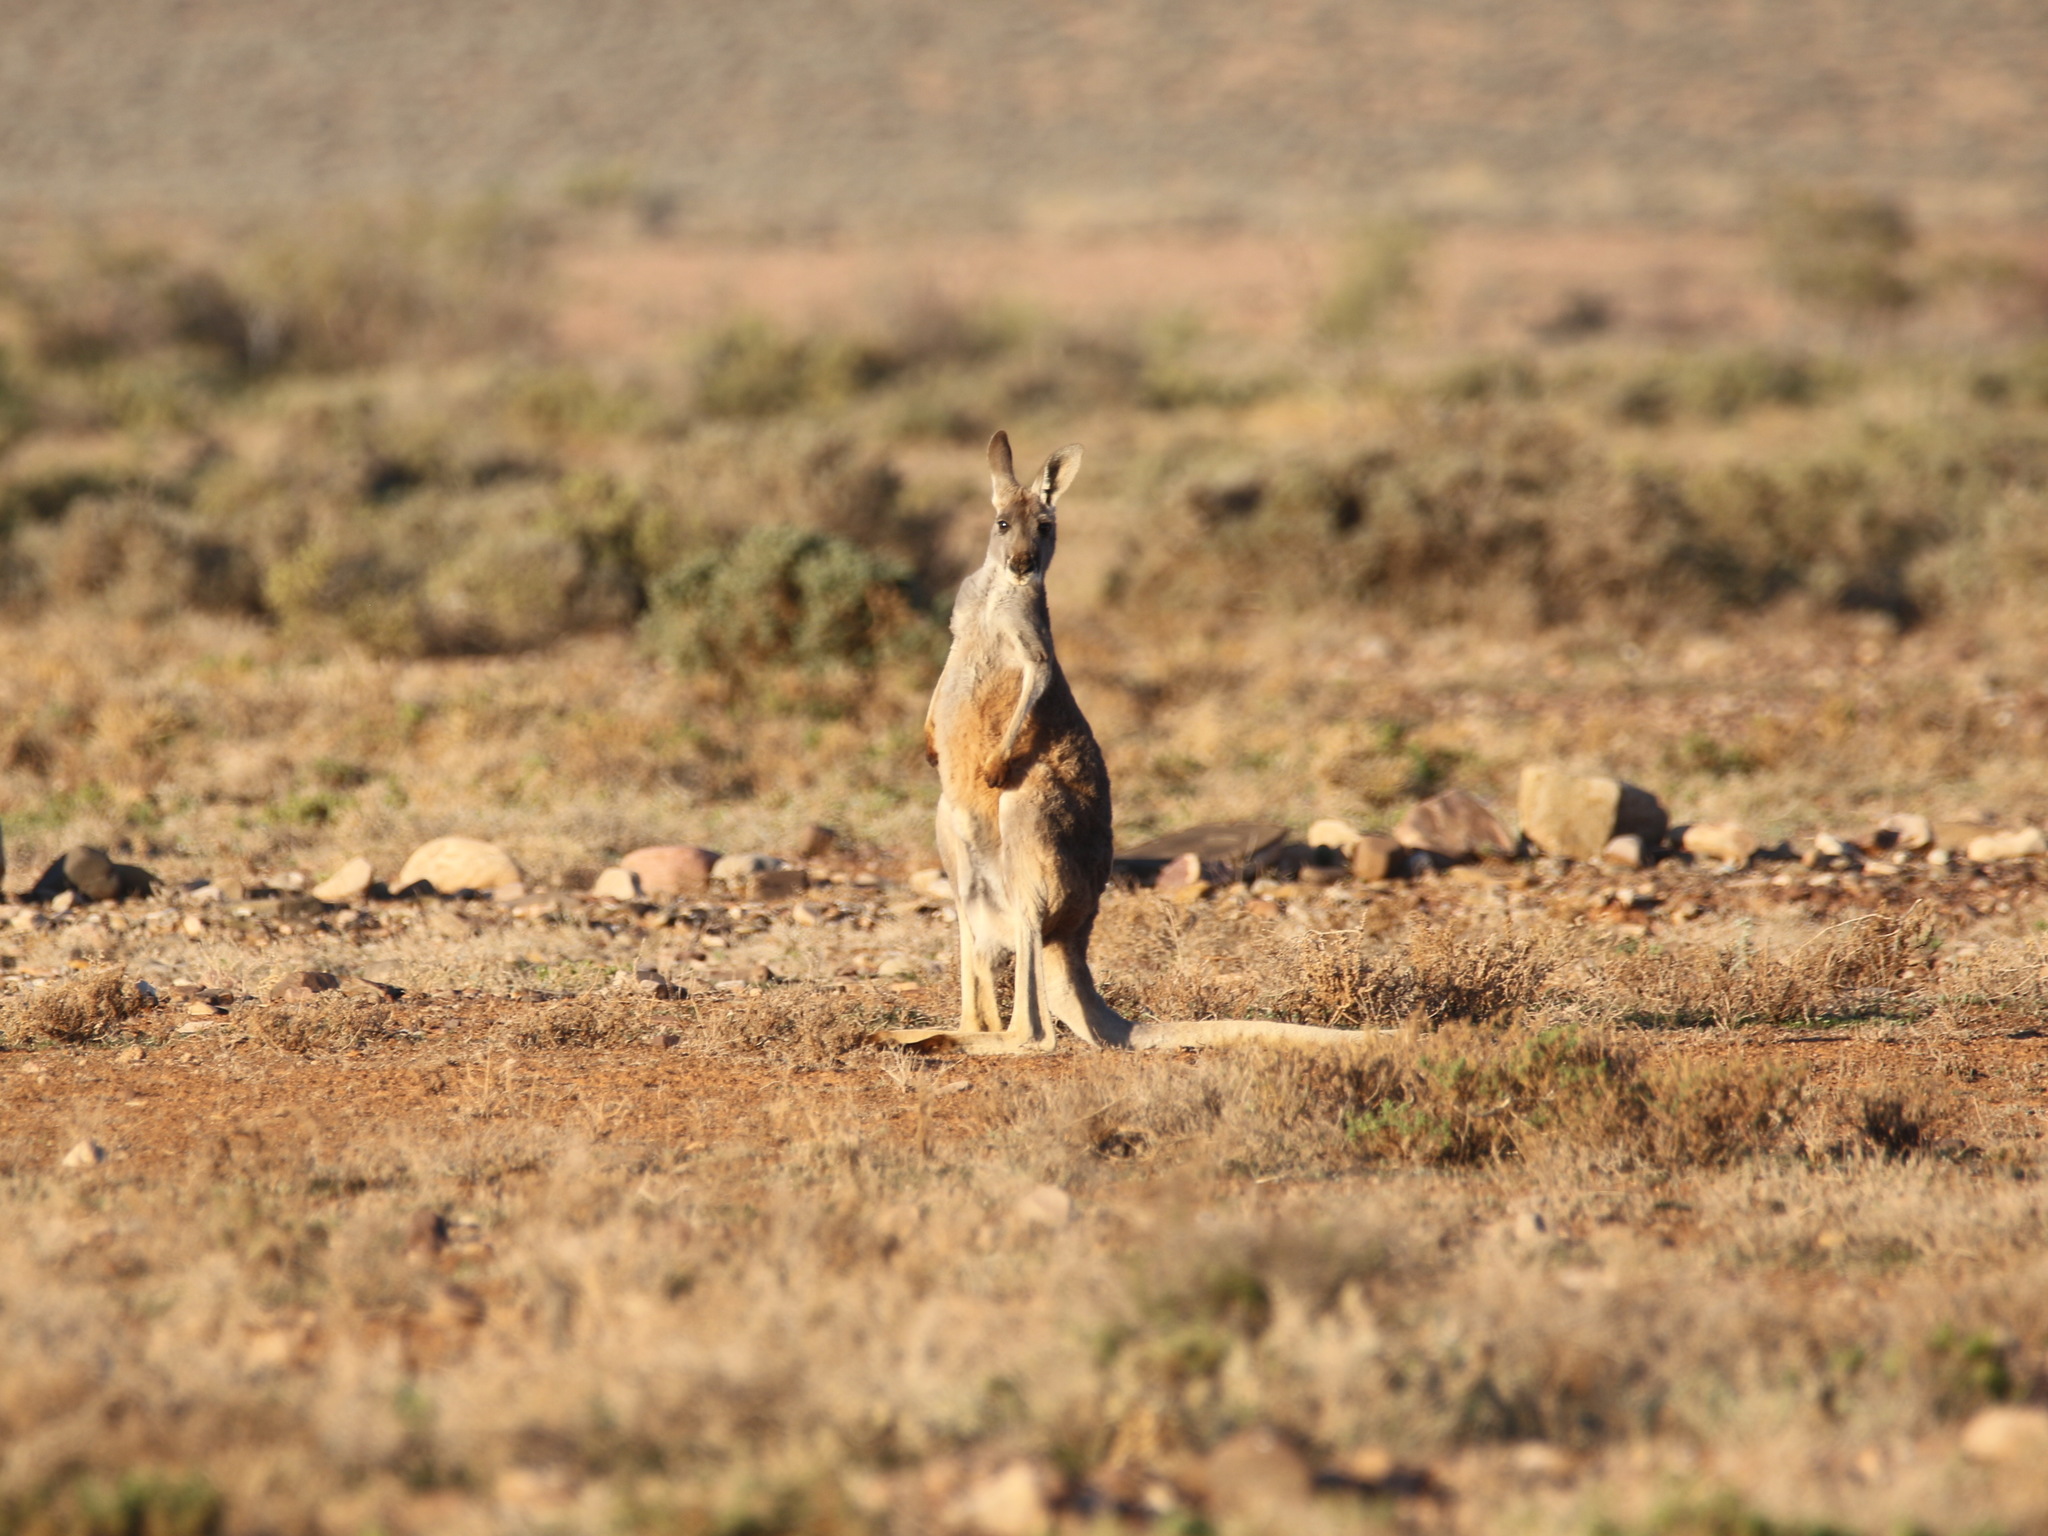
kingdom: Animalia
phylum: Chordata
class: Mammalia
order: Diprotodontia
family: Macropodidae
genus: Macropus
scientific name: Macropus rufus
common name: Red kangaroo
